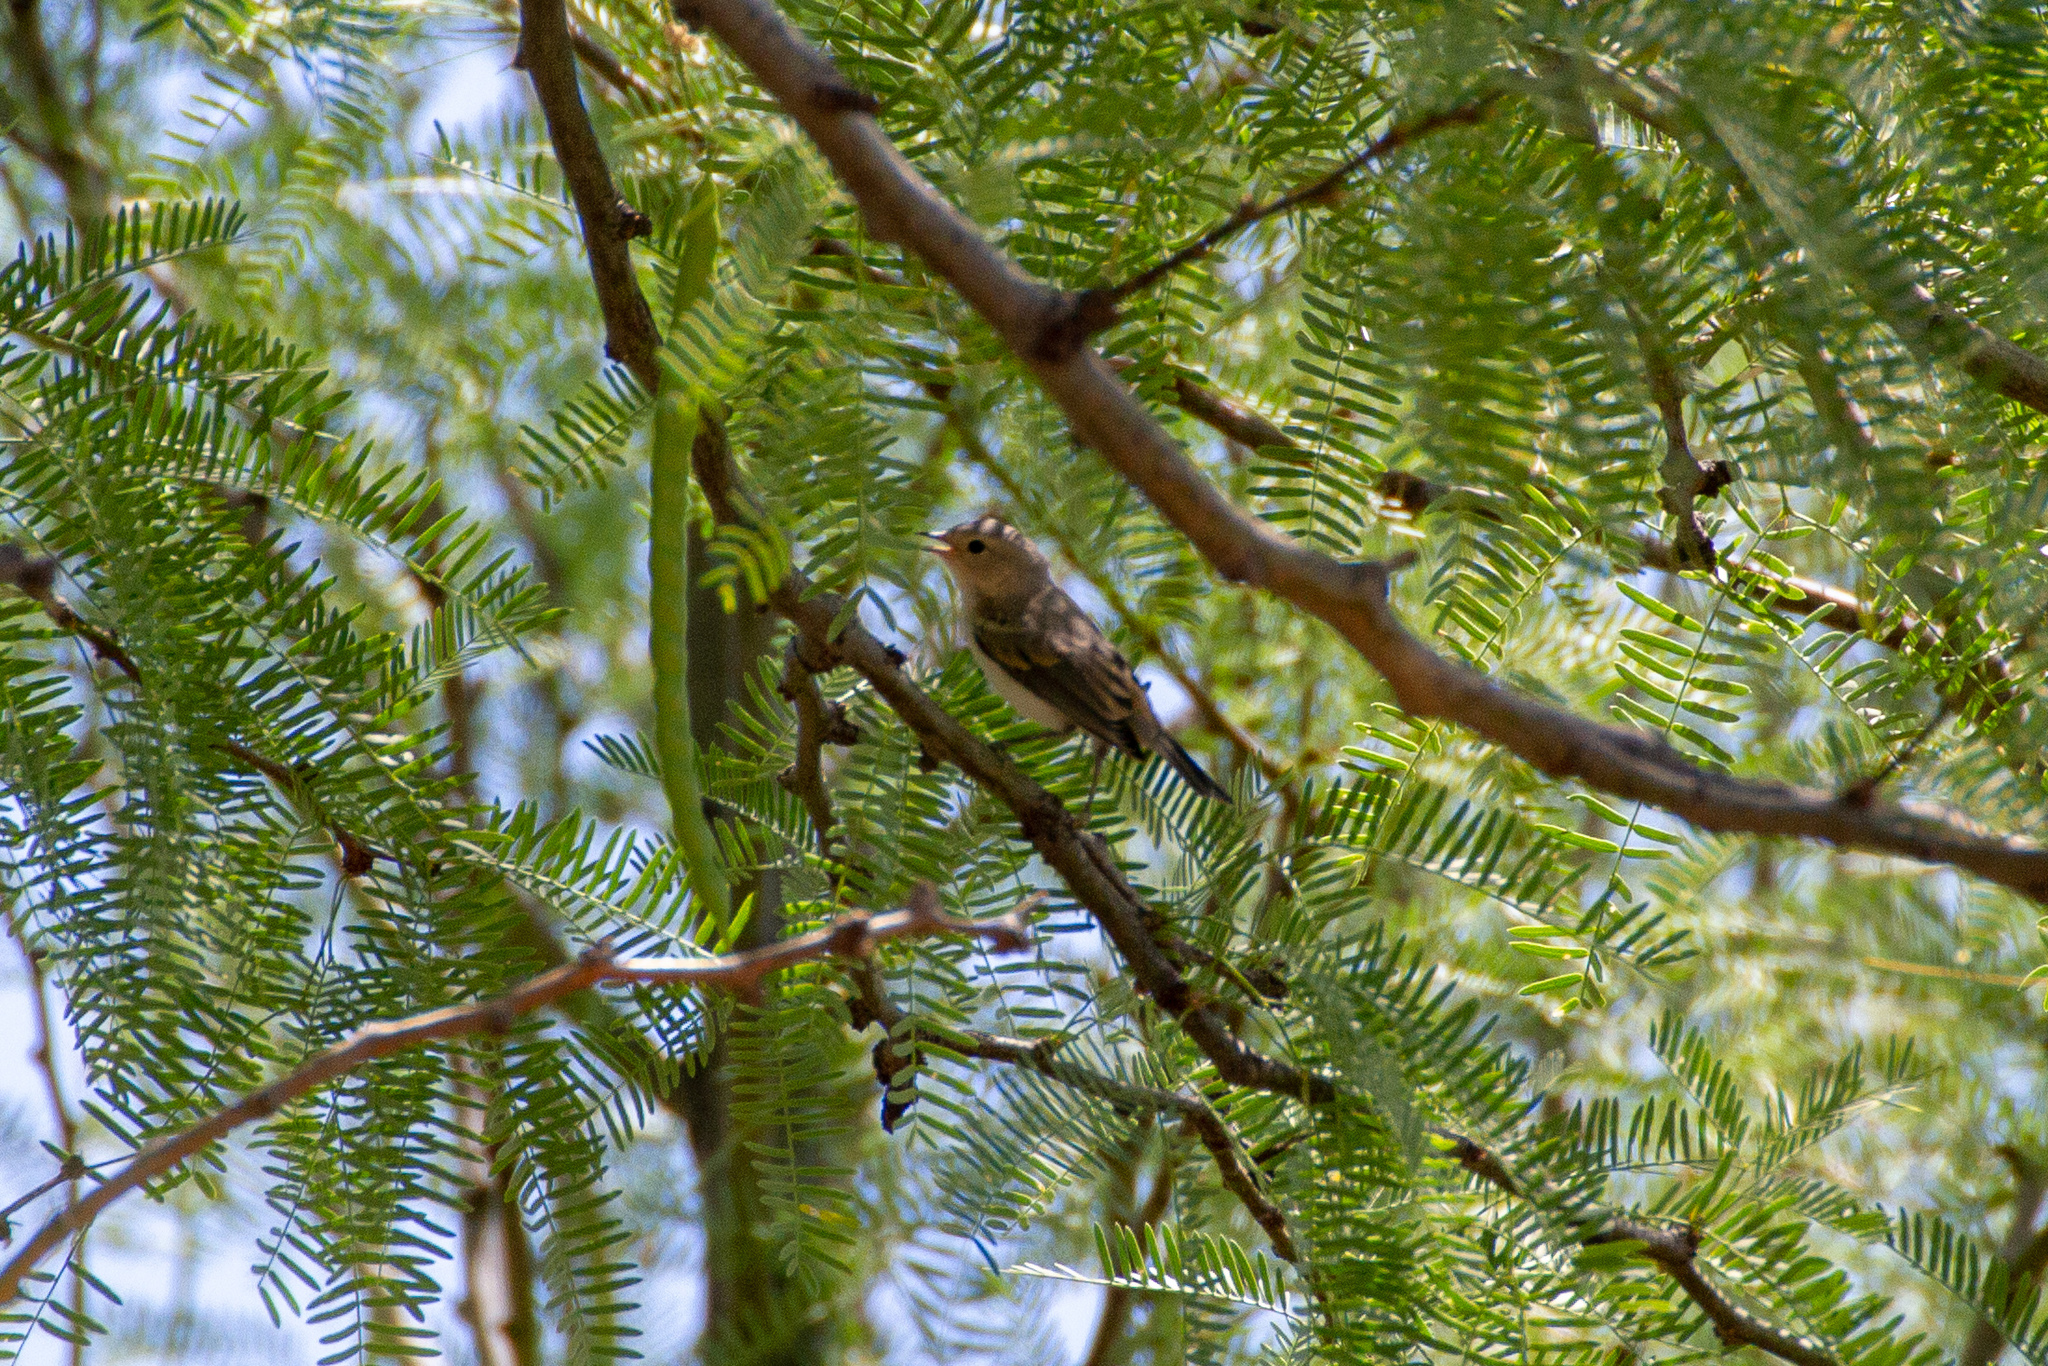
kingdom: Animalia
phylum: Chordata
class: Aves
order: Passeriformes
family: Parulidae
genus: Leiothlypis
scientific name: Leiothlypis luciae
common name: Lucy's warbler
